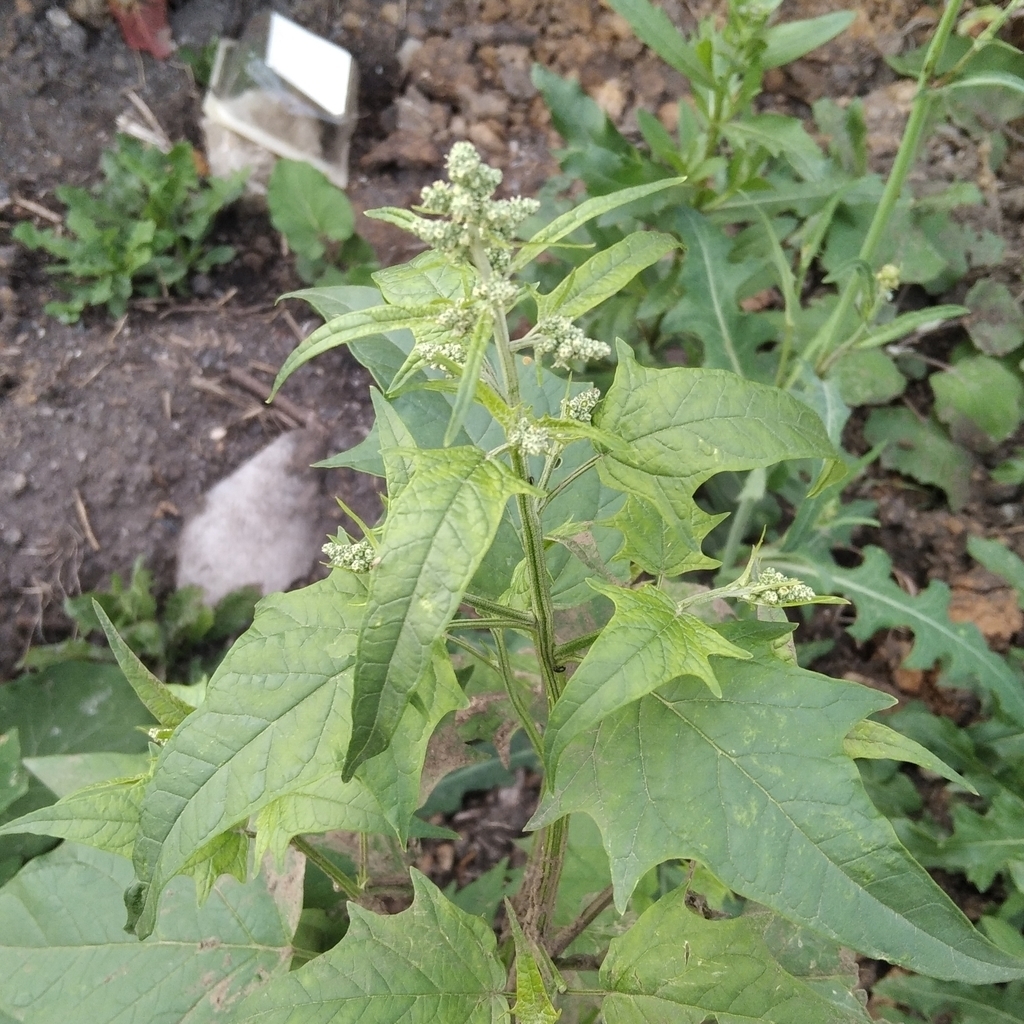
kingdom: Plantae
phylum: Tracheophyta
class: Magnoliopsida
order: Caryophyllales
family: Amaranthaceae
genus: Chenopodiastrum
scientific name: Chenopodiastrum hybridum
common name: Mapleleaf goosefoot
